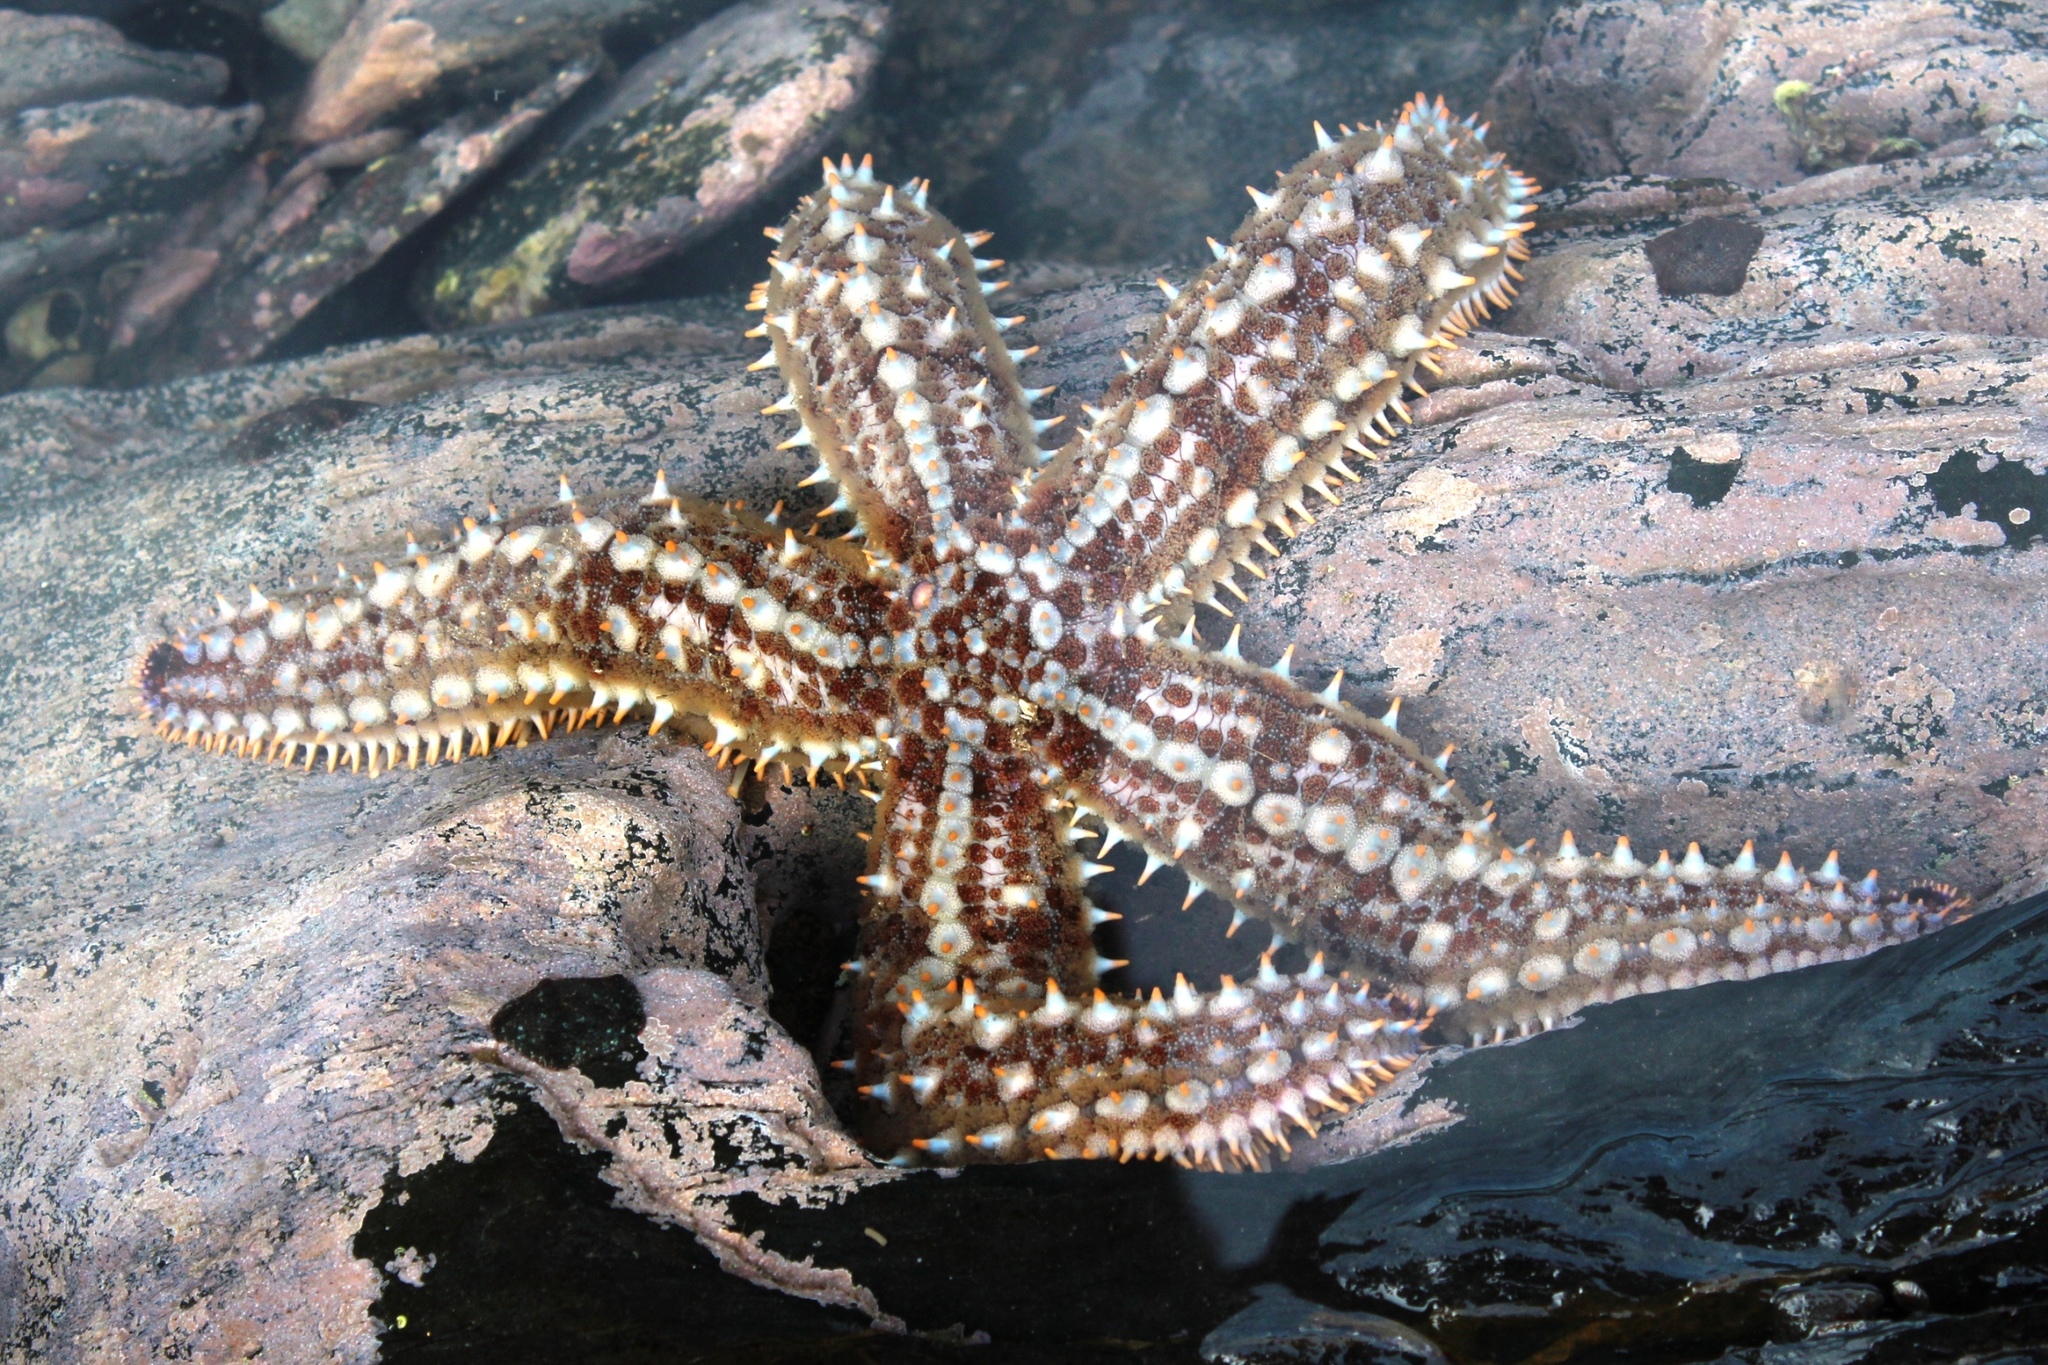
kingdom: Animalia
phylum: Echinodermata
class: Asteroidea
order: Forcipulatida
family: Asteriidae
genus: Marthasterias
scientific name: Marthasterias africana
